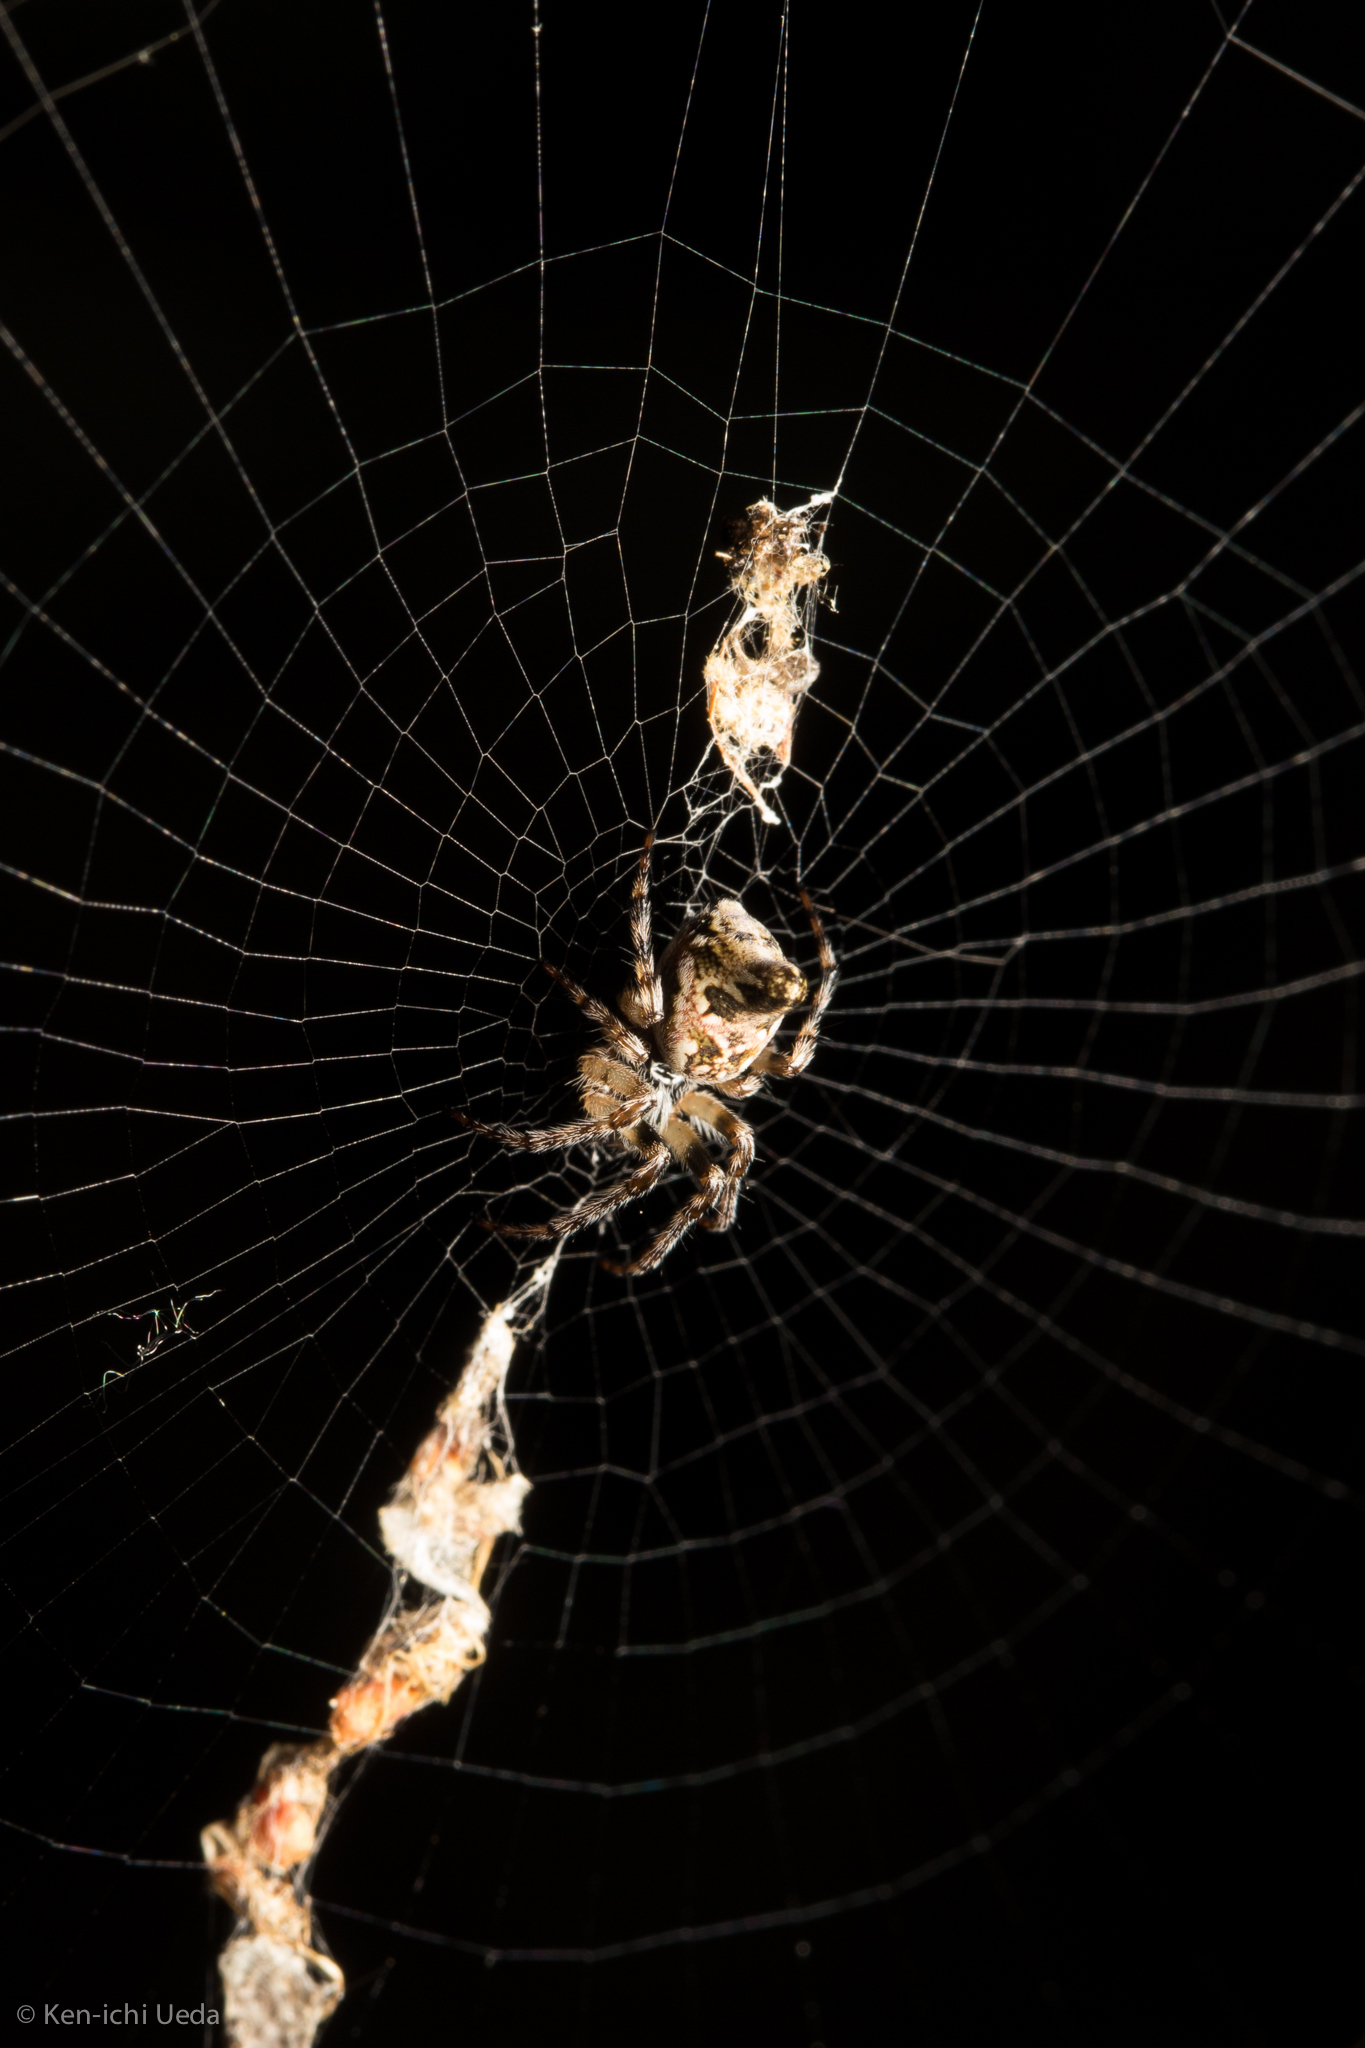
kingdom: Animalia
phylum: Arthropoda
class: Arachnida
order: Araneae
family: Araneidae
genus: Cyclosa
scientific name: Cyclosa conica
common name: Conical trashline orbweaver
